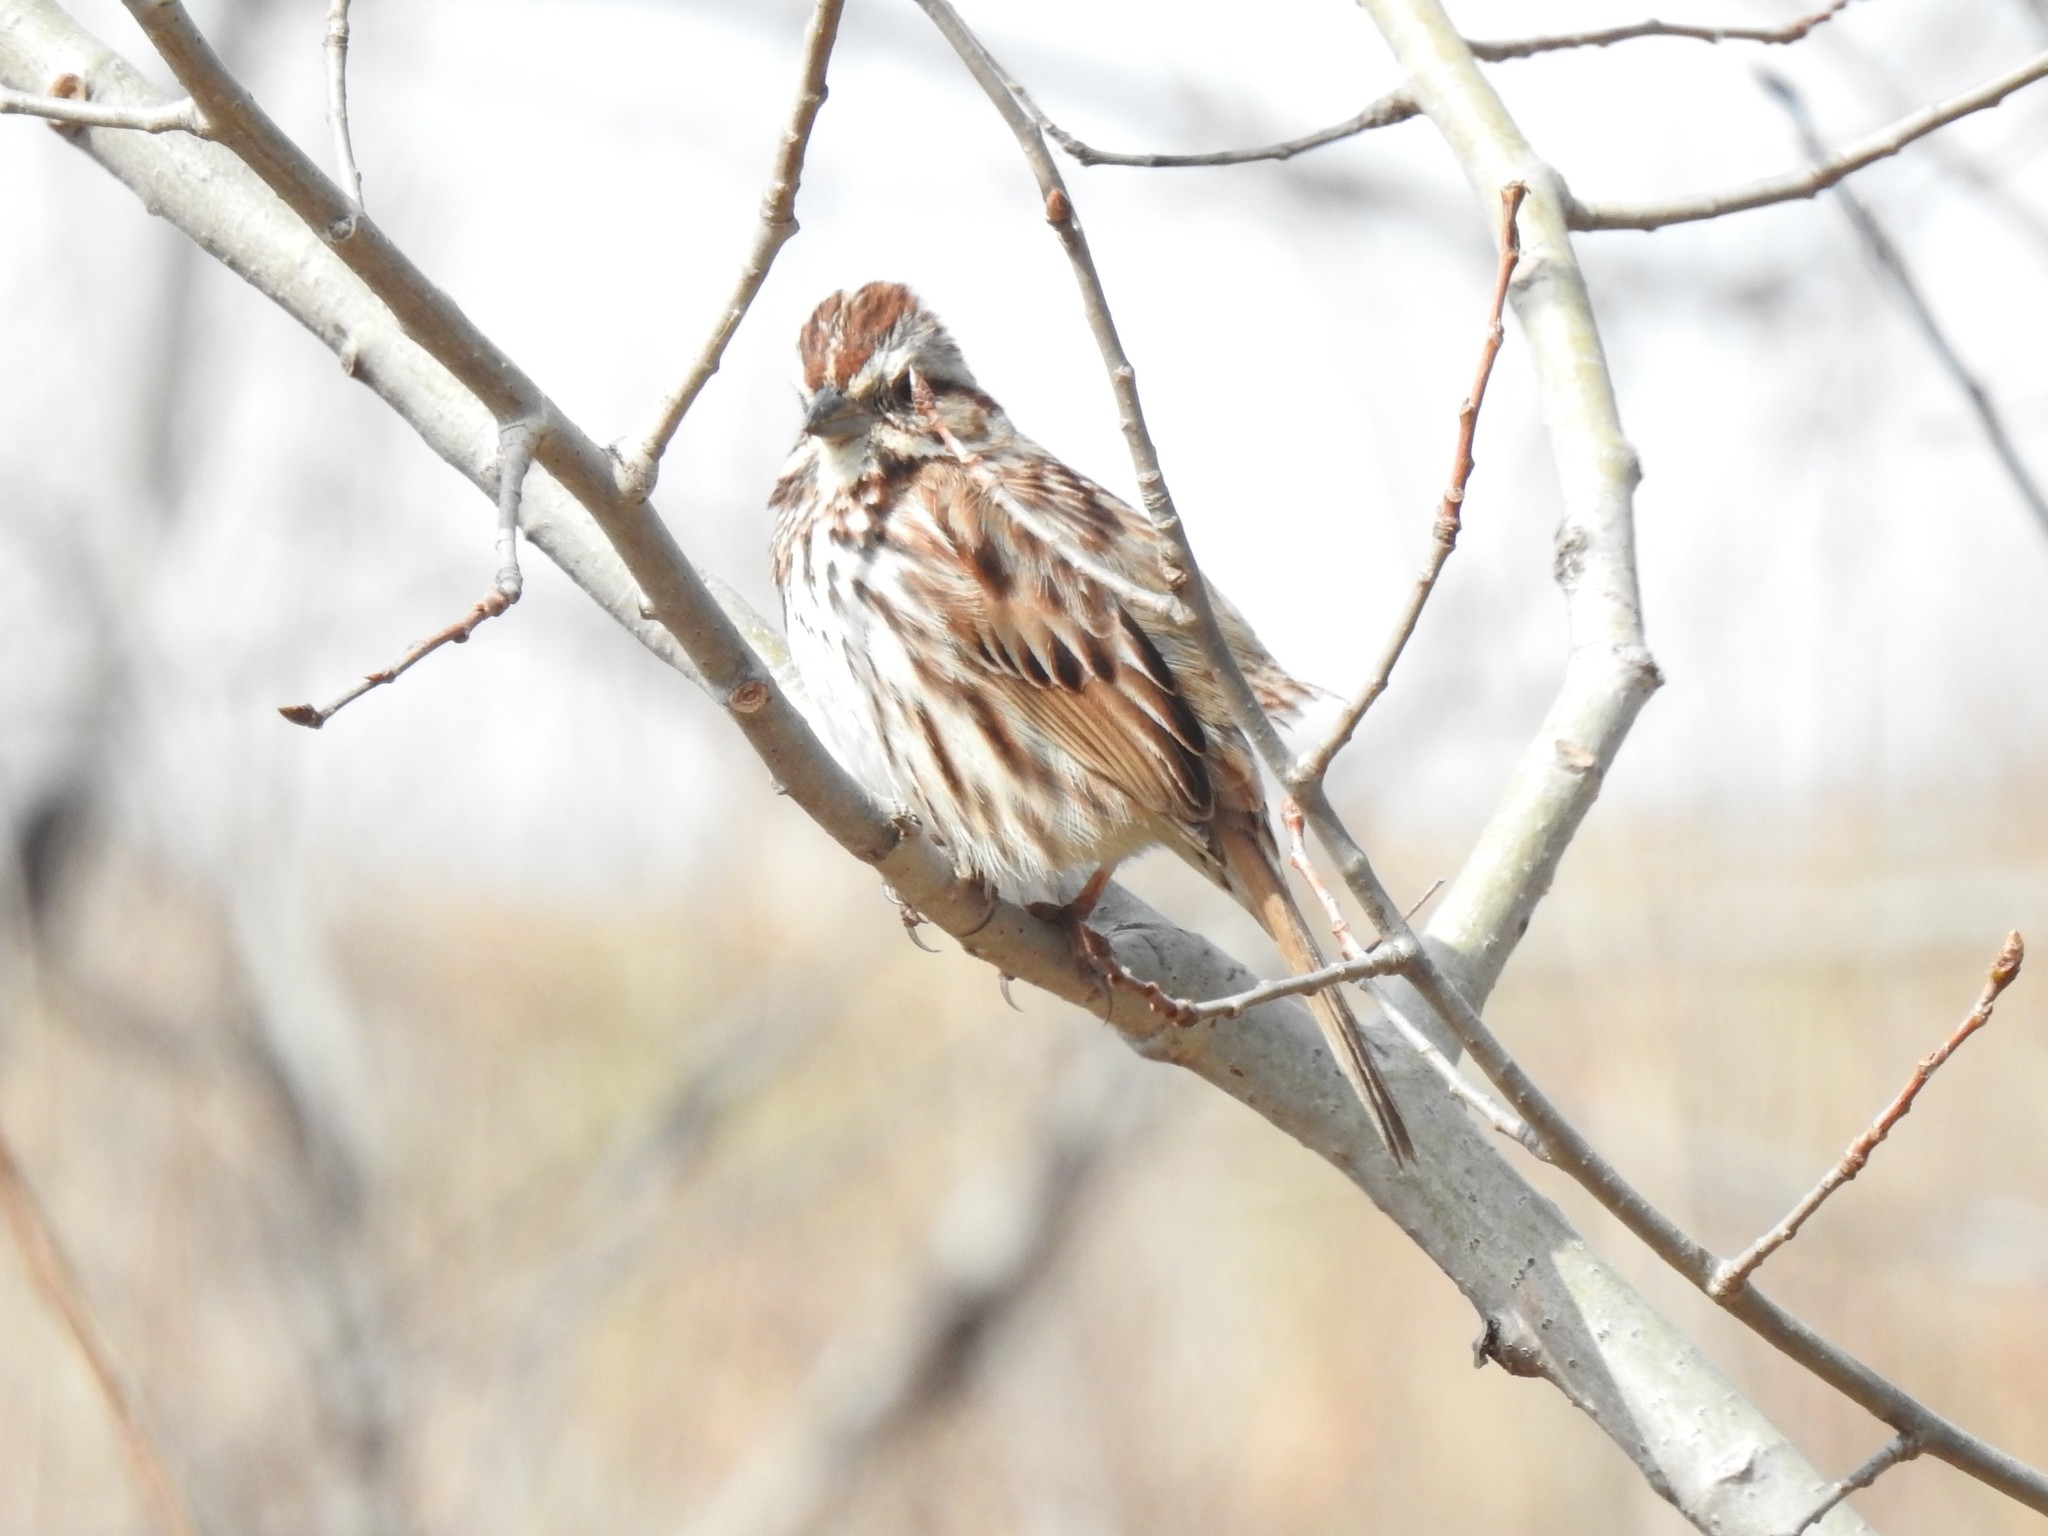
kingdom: Animalia
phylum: Chordata
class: Aves
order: Passeriformes
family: Passerellidae
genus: Melospiza
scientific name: Melospiza melodia
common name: Song sparrow
